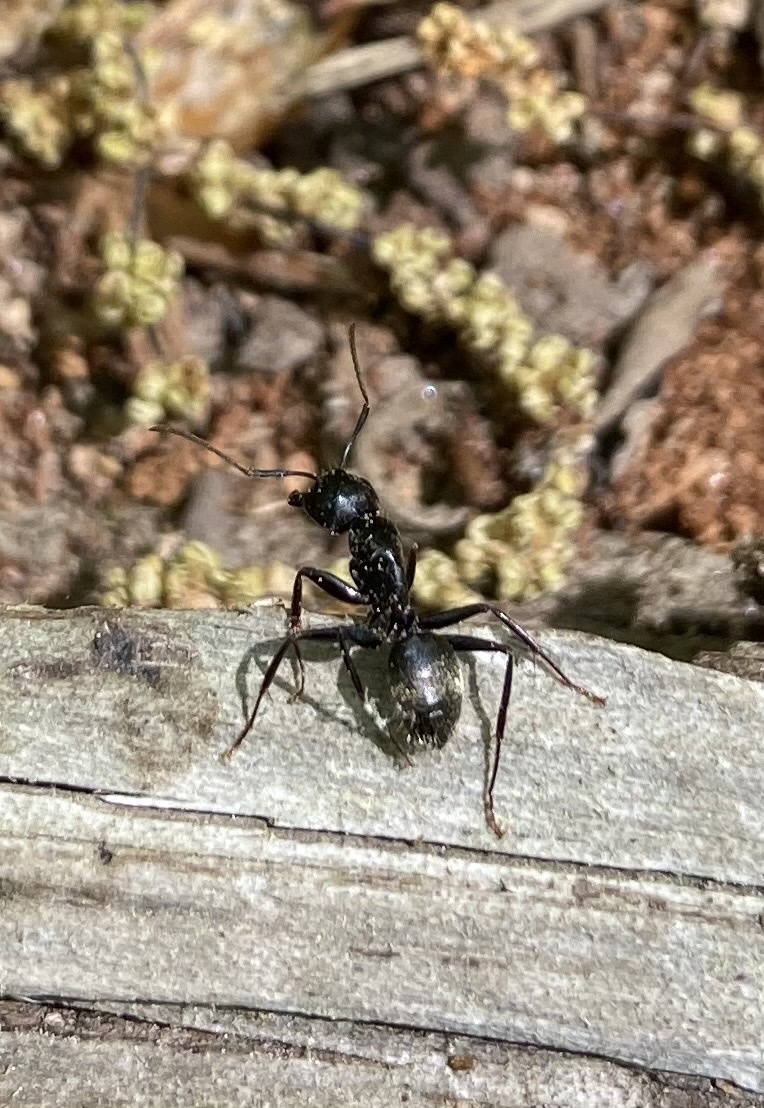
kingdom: Animalia
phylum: Arthropoda
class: Insecta
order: Hymenoptera
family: Formicidae
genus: Camponotus
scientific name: Camponotus pennsylvanicus
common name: Black carpenter ant
